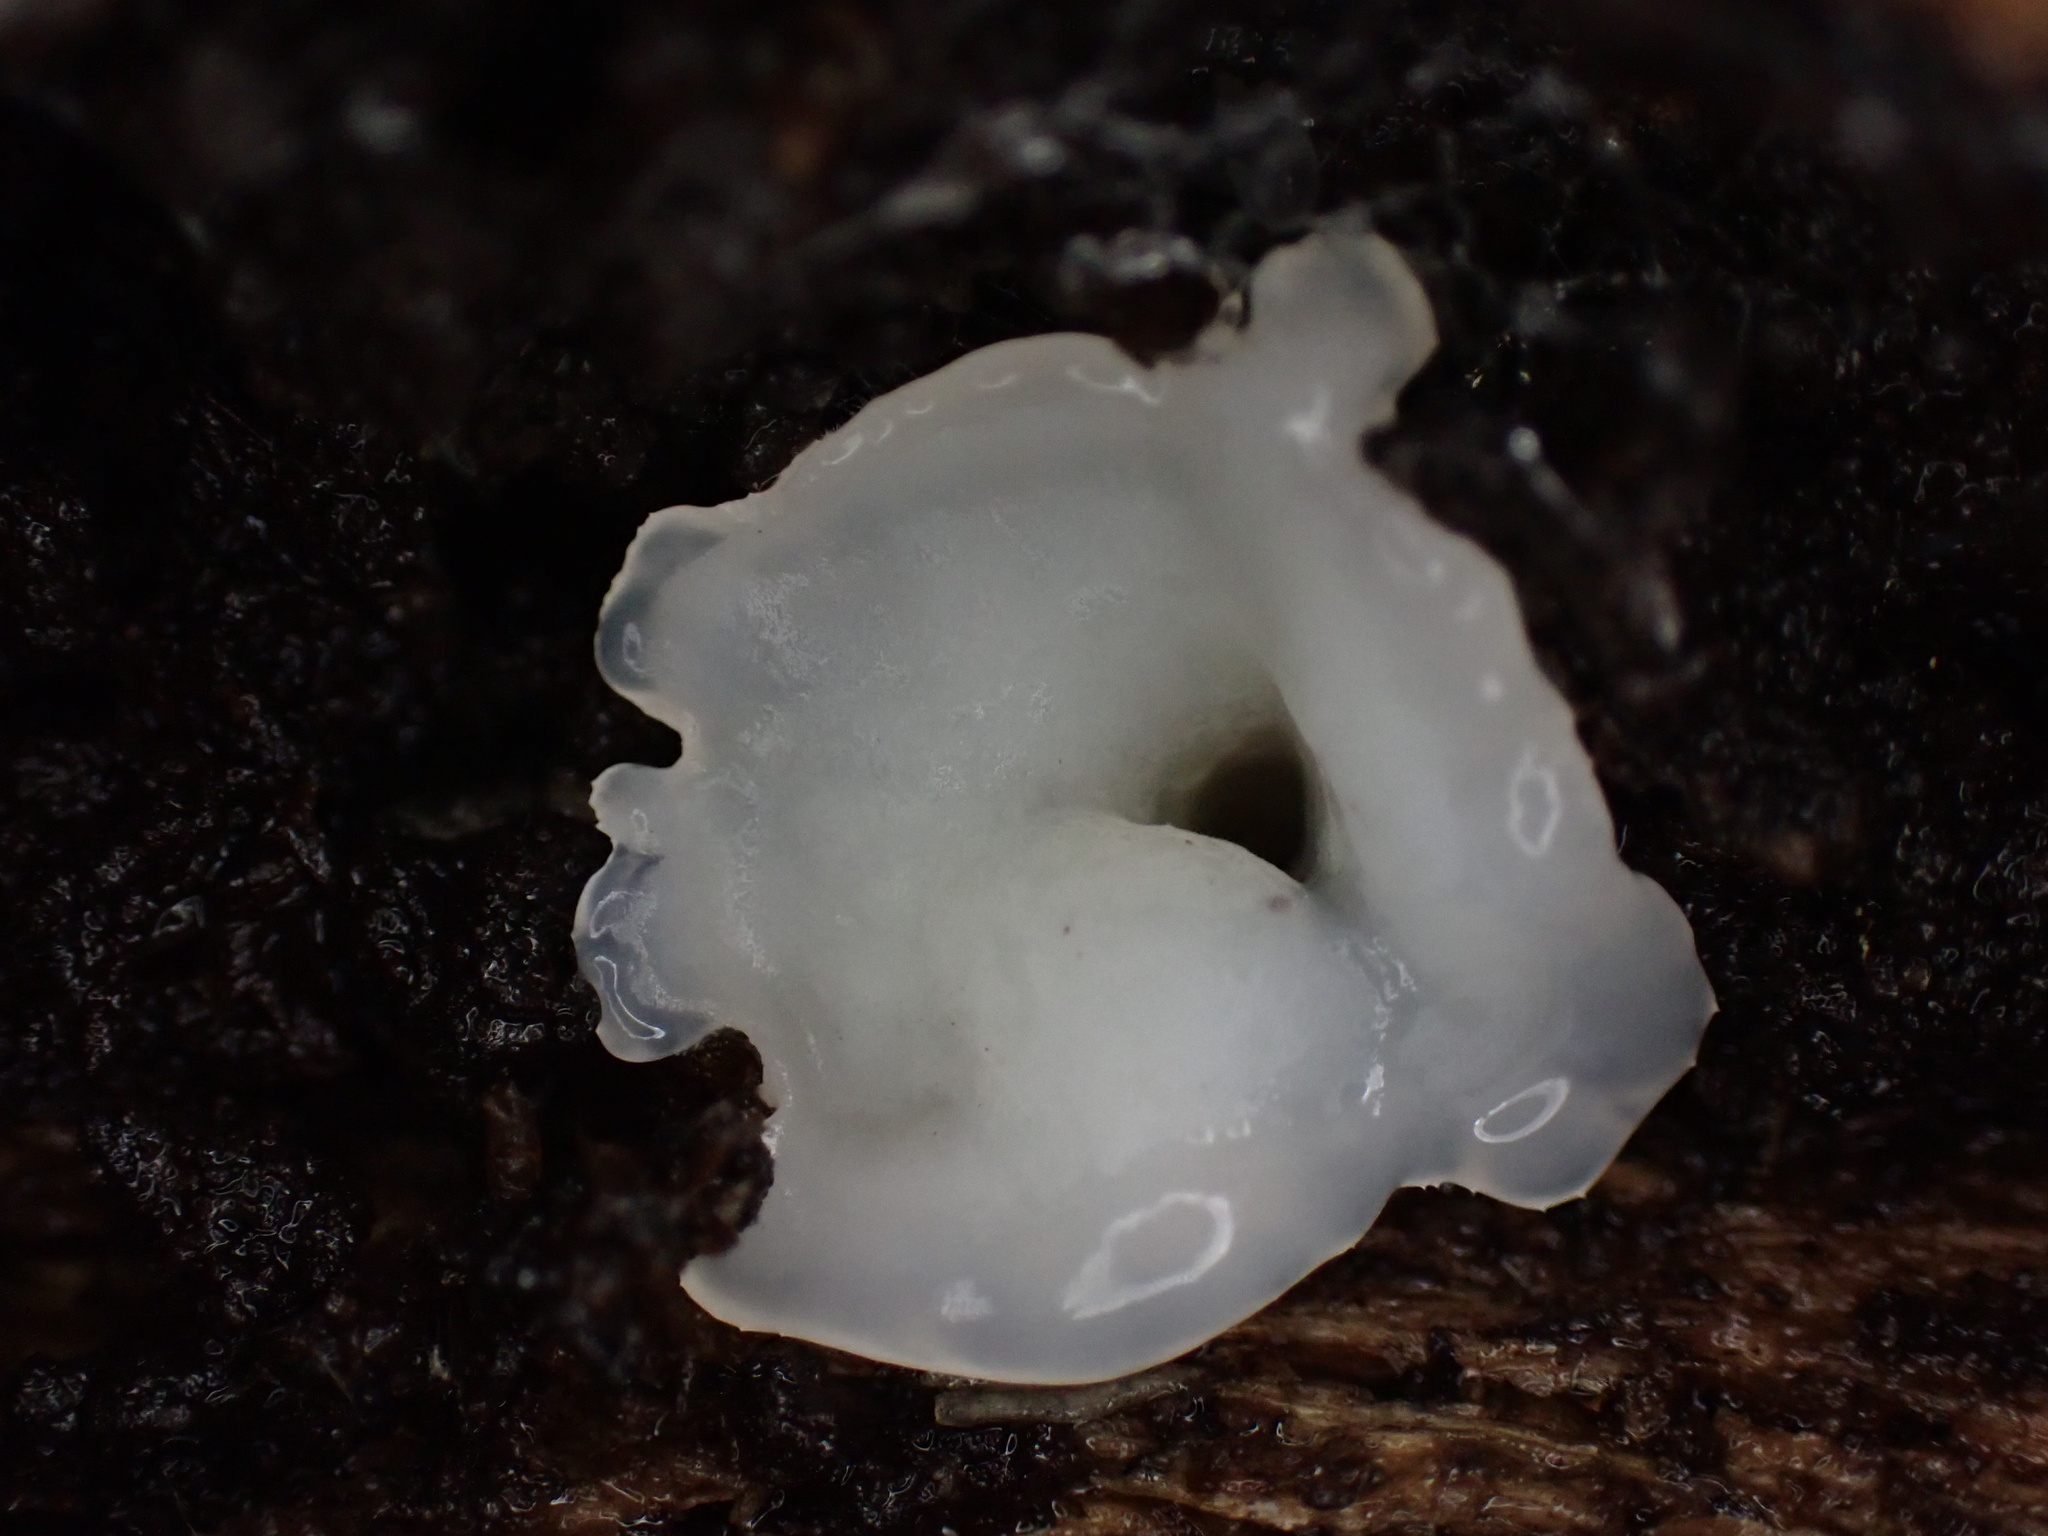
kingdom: Fungi
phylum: Basidiomycota
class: Agaricomycetes
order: Polyporales
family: Meruliaceae
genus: Phlebia
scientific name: Phlebia tremellosa
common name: Jelly rot
